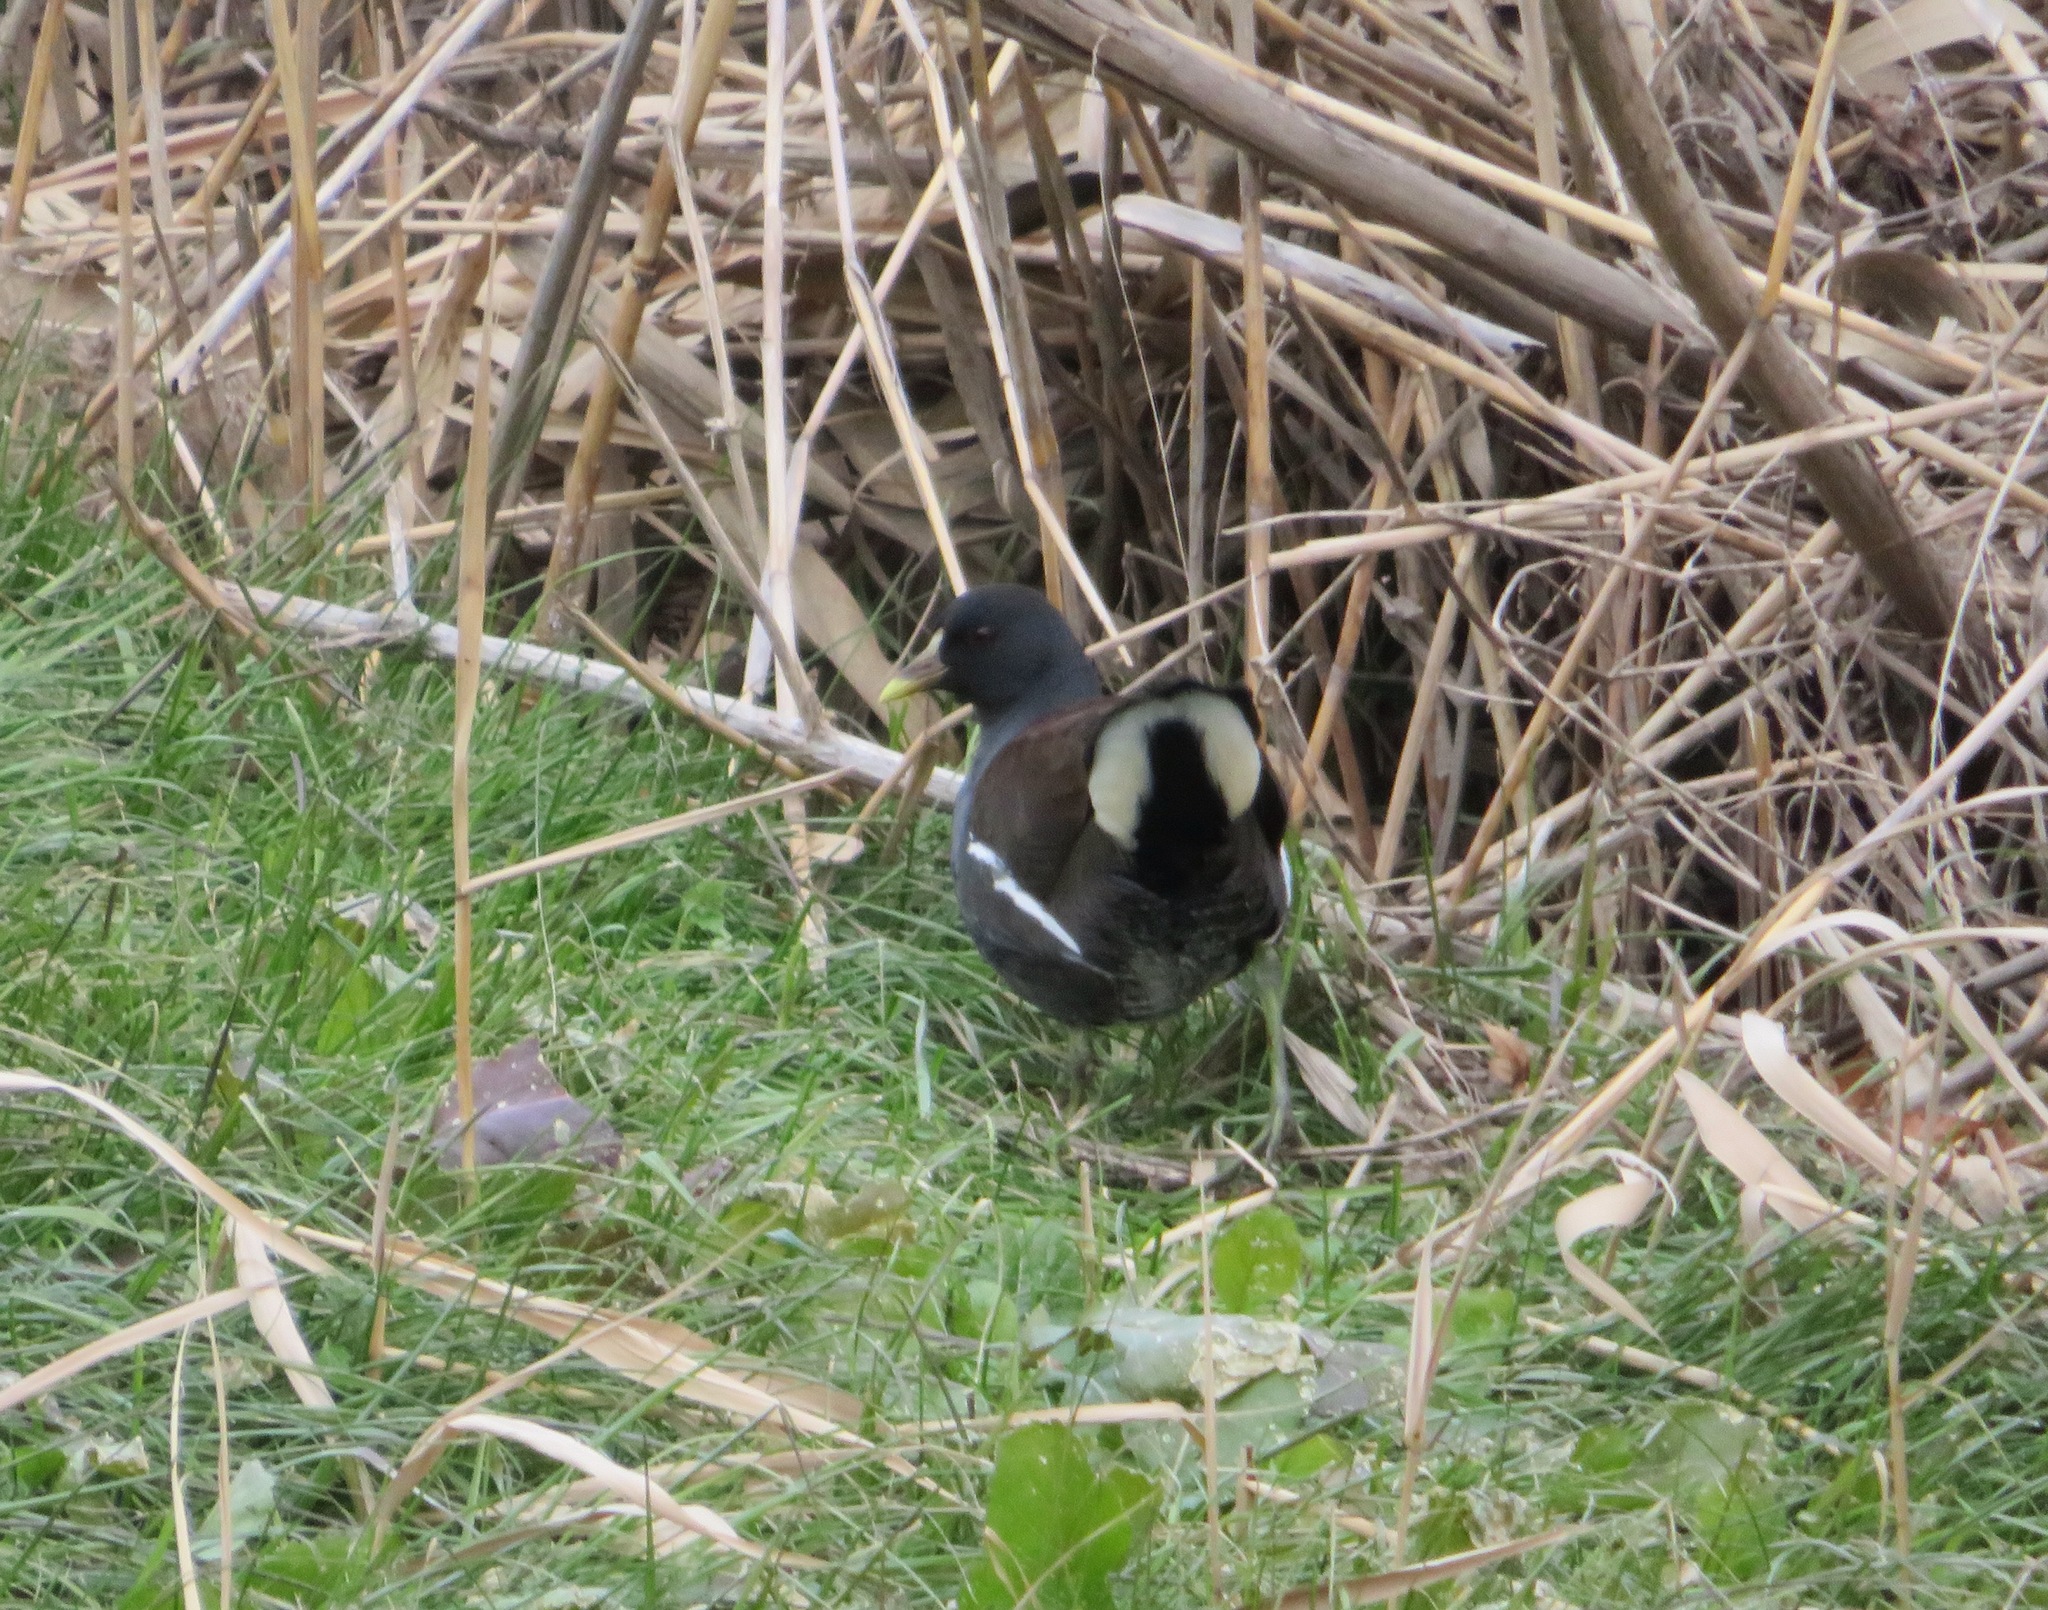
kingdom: Animalia
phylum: Chordata
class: Aves
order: Gruiformes
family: Rallidae
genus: Gallinula
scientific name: Gallinula chloropus
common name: Common moorhen
